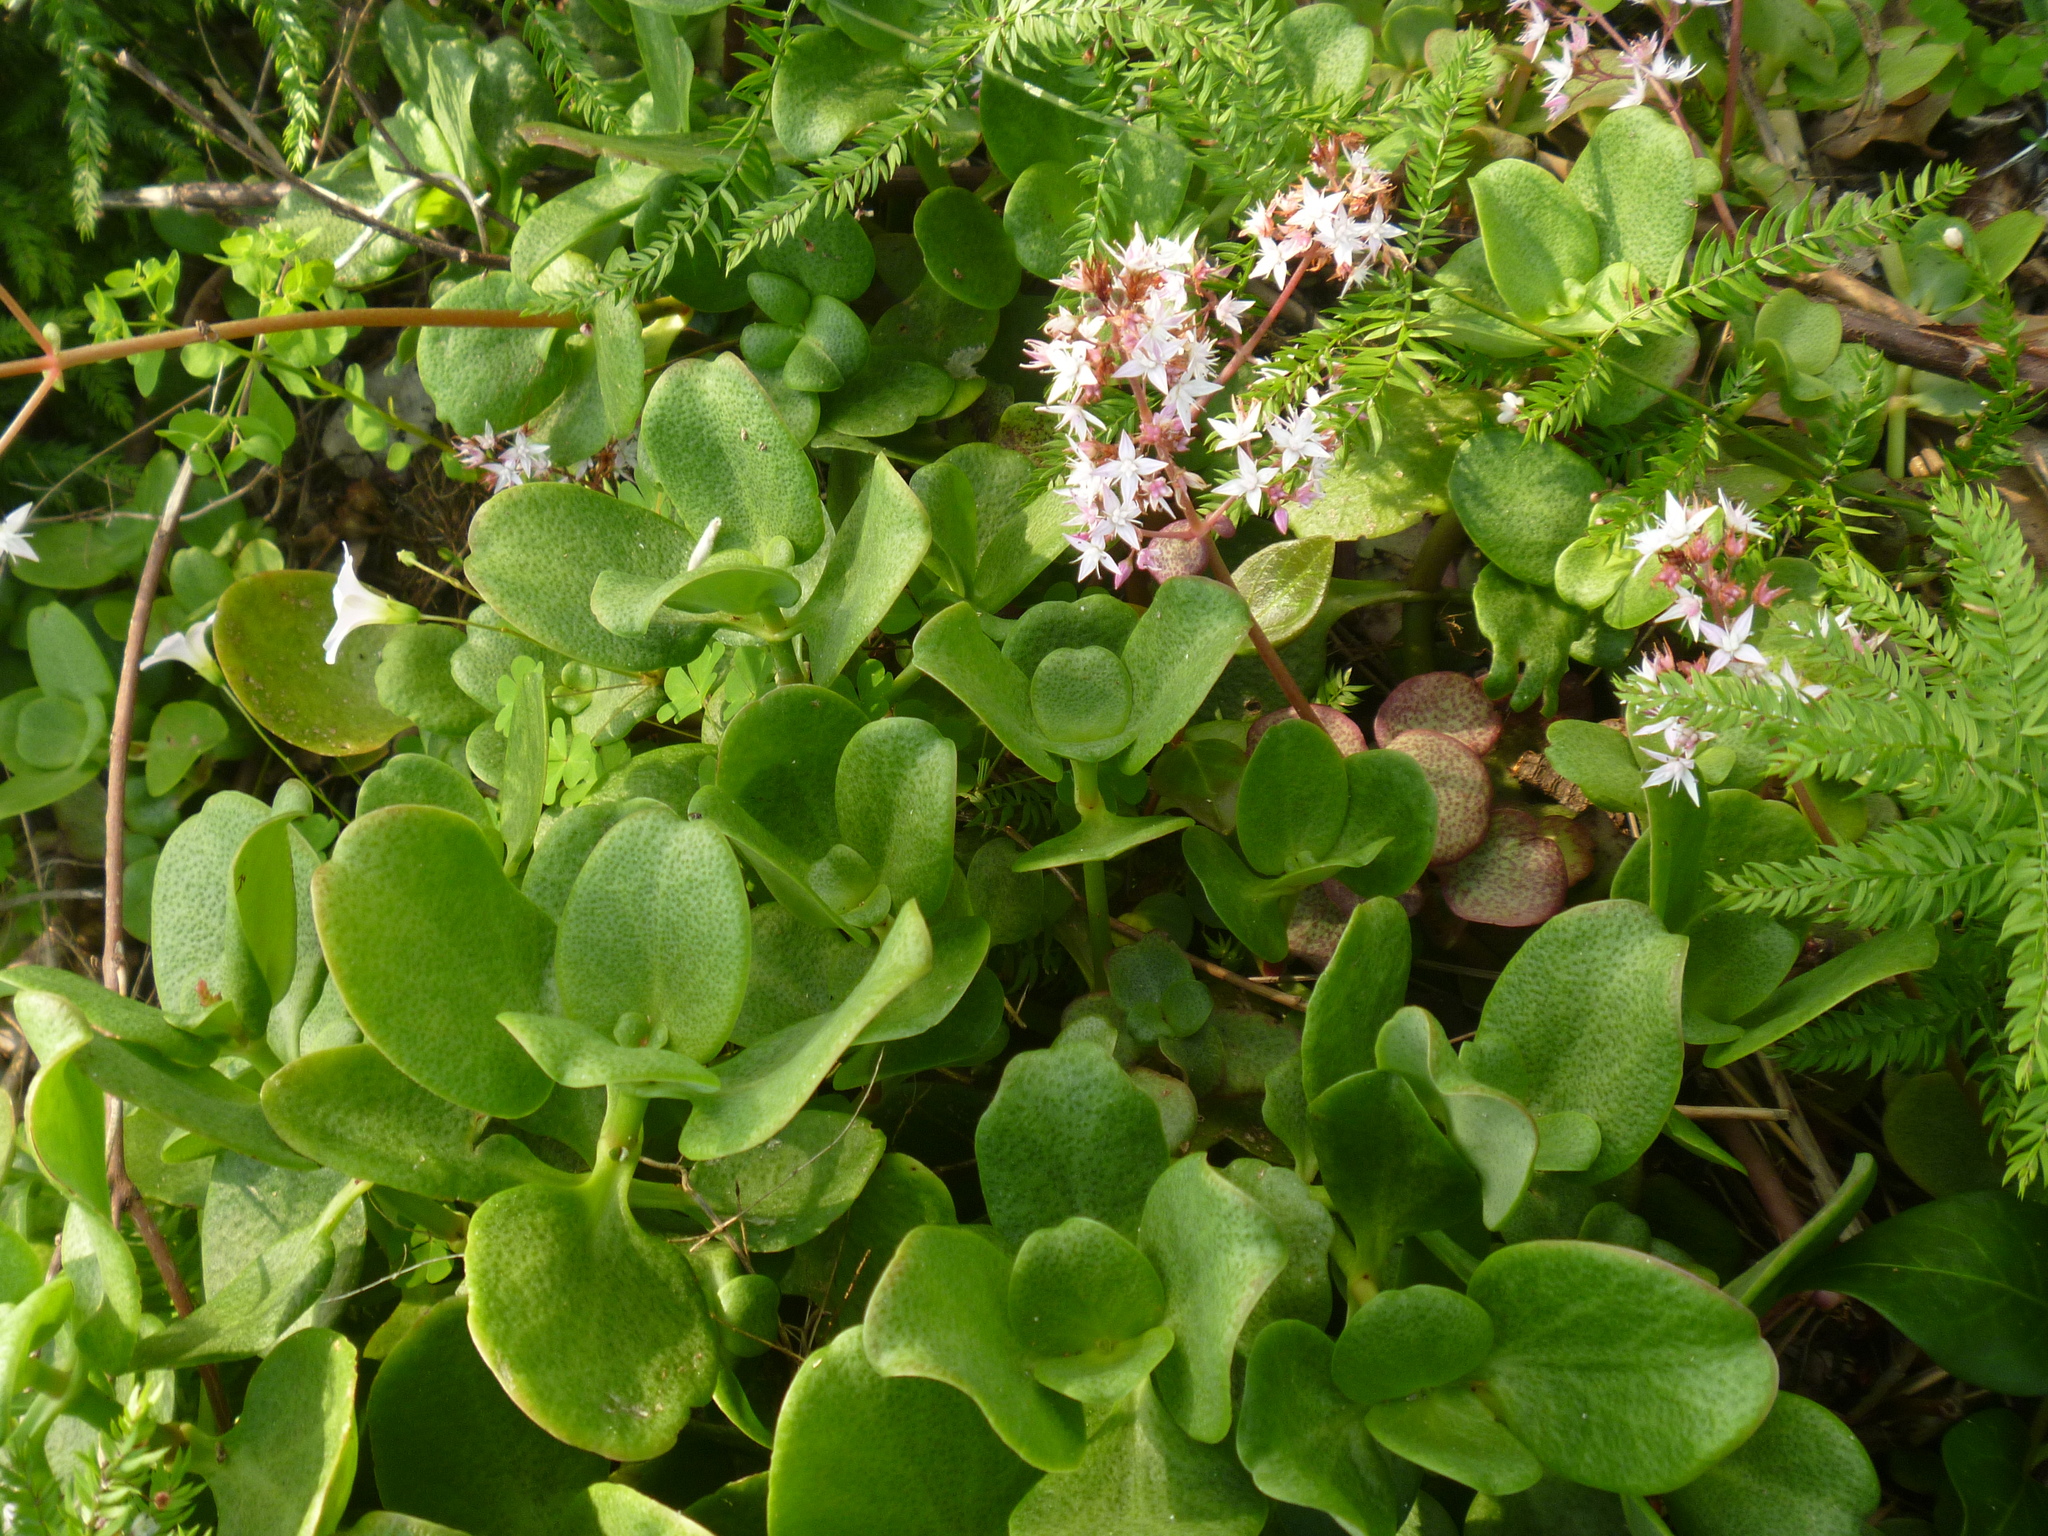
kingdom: Plantae
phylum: Tracheophyta
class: Magnoliopsida
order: Saxifragales
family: Crassulaceae
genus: Crassula
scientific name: Crassula multicava
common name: Cape province pygmyweed
